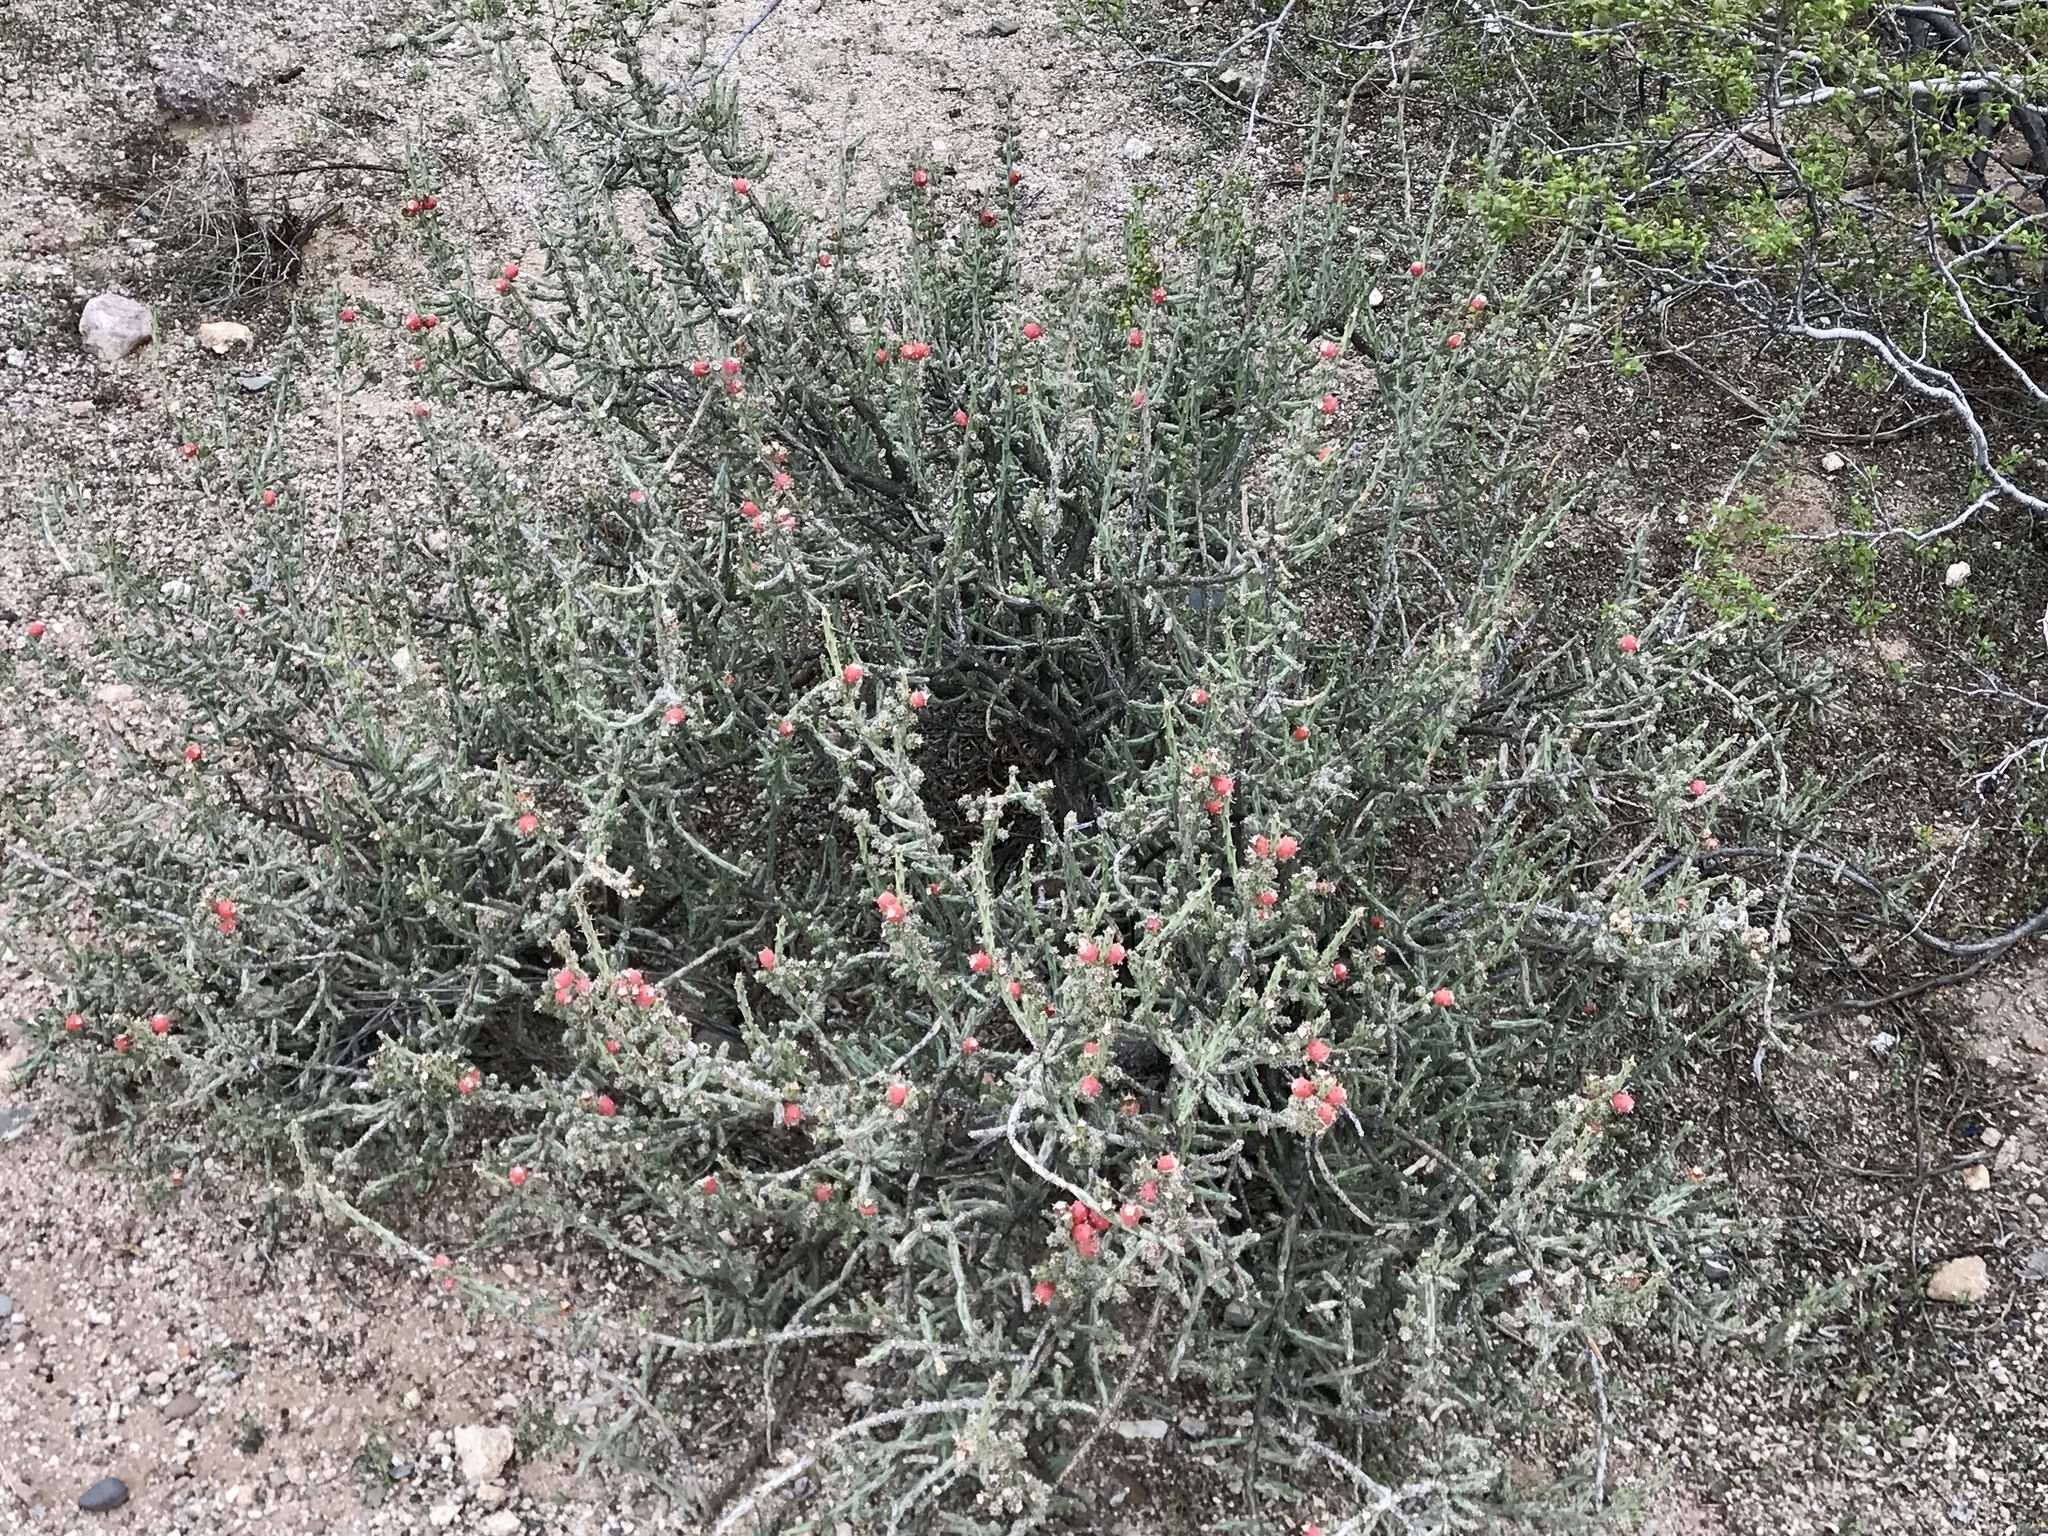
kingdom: Plantae
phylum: Tracheophyta
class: Magnoliopsida
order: Caryophyllales
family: Cactaceae
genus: Cylindropuntia
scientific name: Cylindropuntia leptocaulis
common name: Christmas cactus
